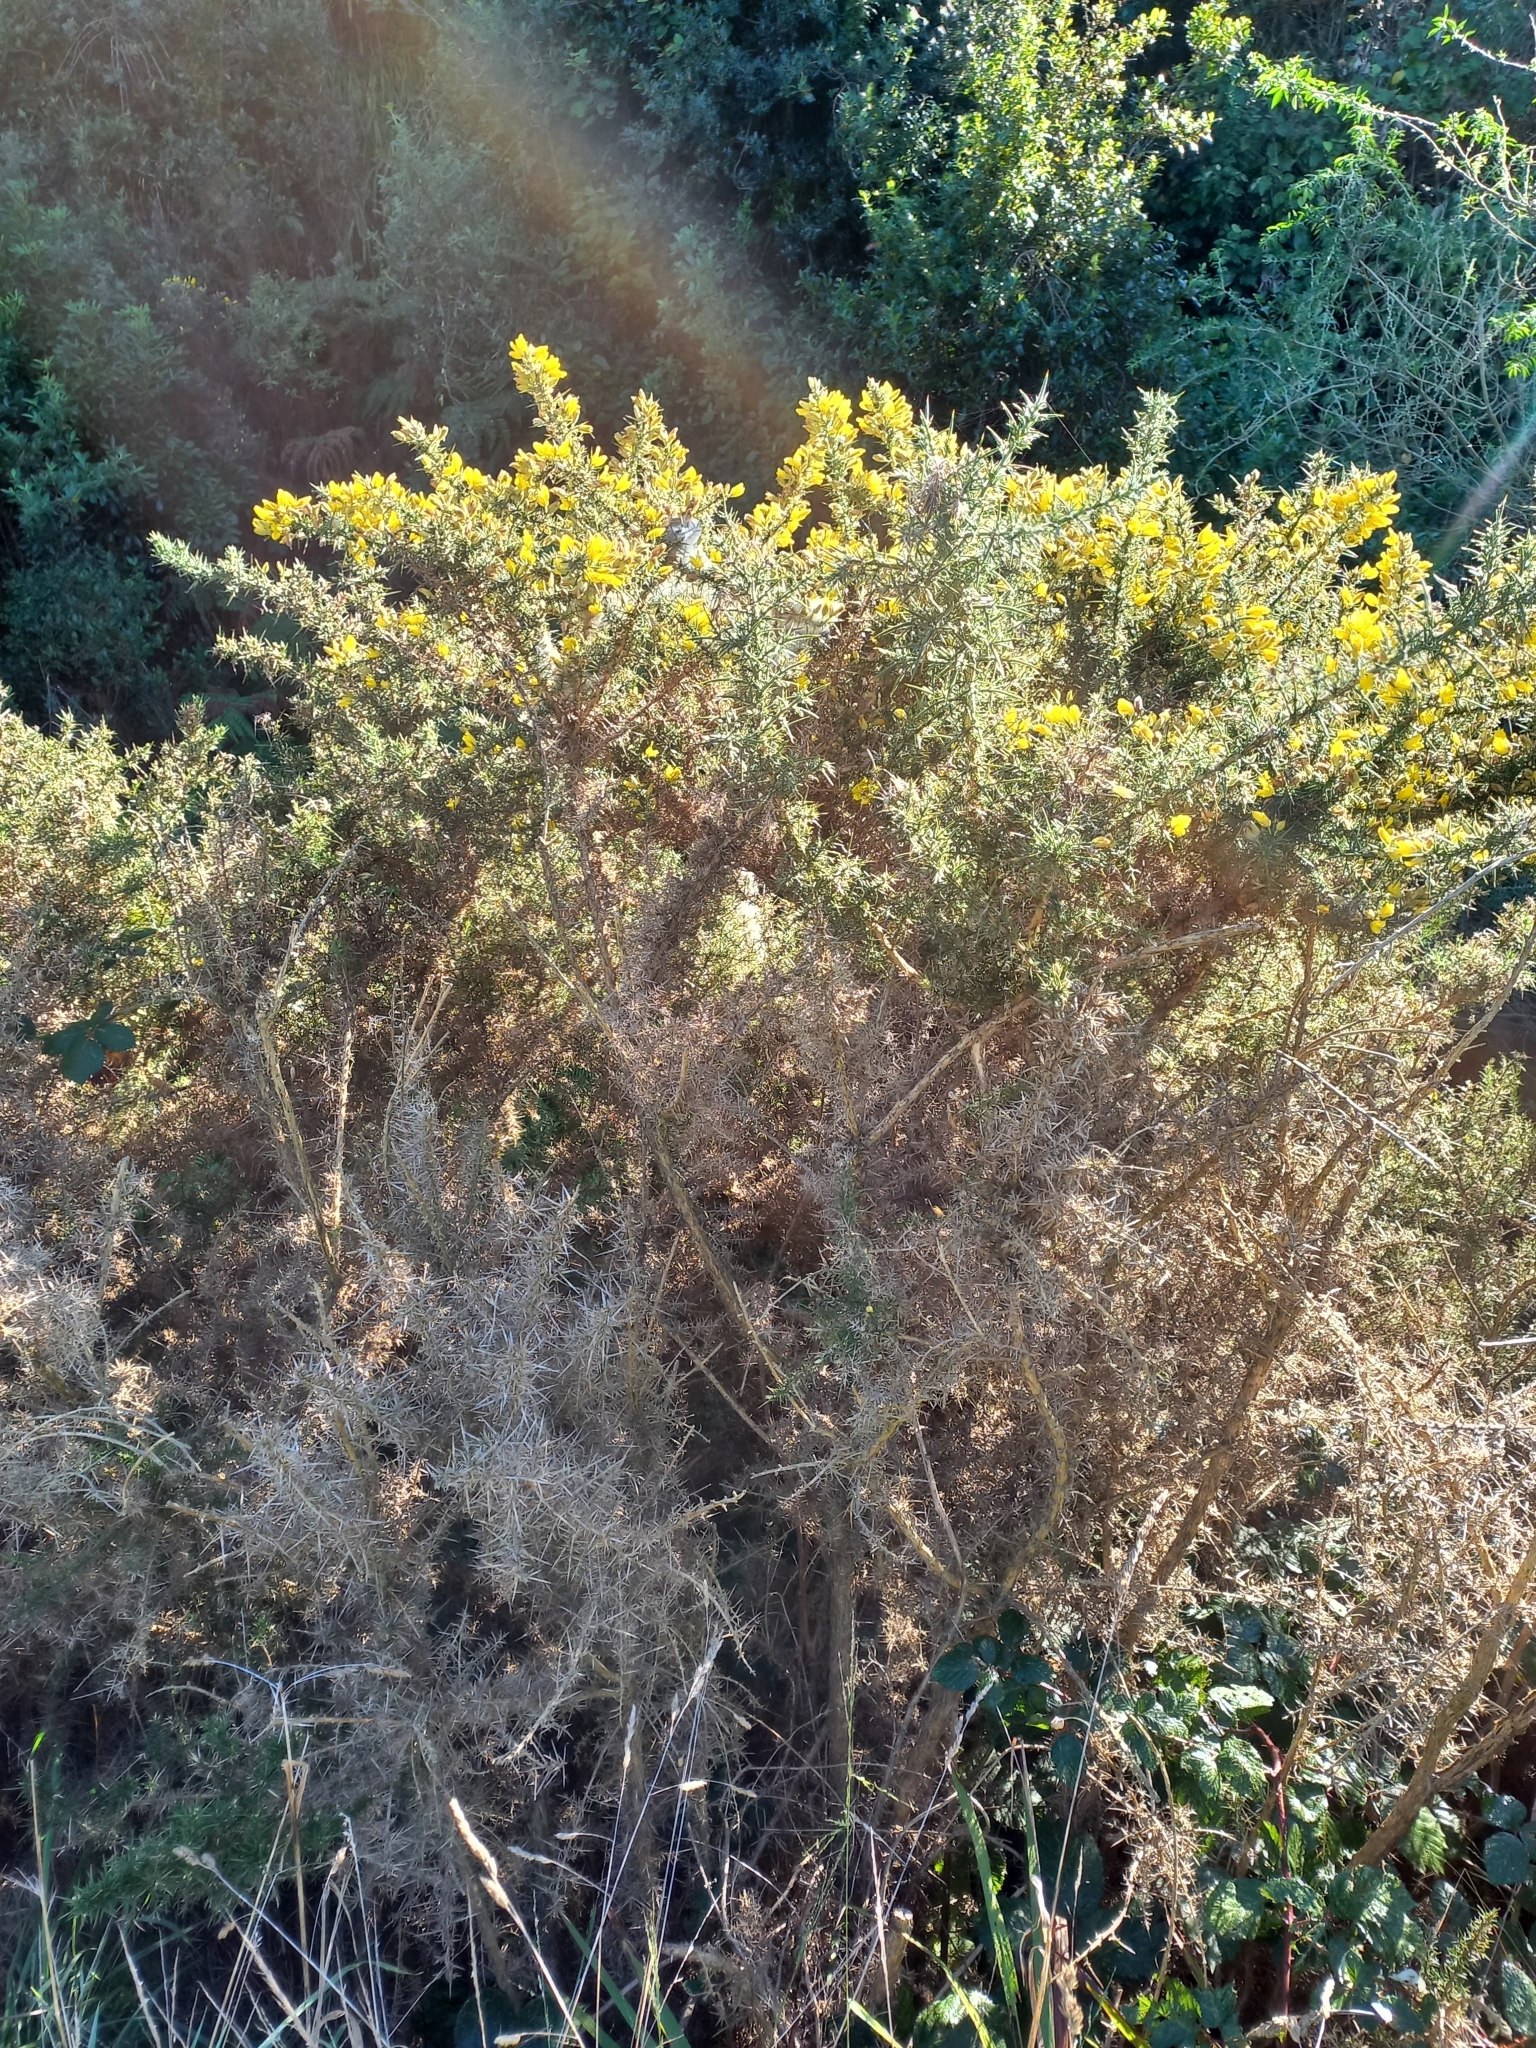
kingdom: Plantae
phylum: Tracheophyta
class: Magnoliopsida
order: Fabales
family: Fabaceae
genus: Ulex
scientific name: Ulex europaeus
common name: Common gorse
